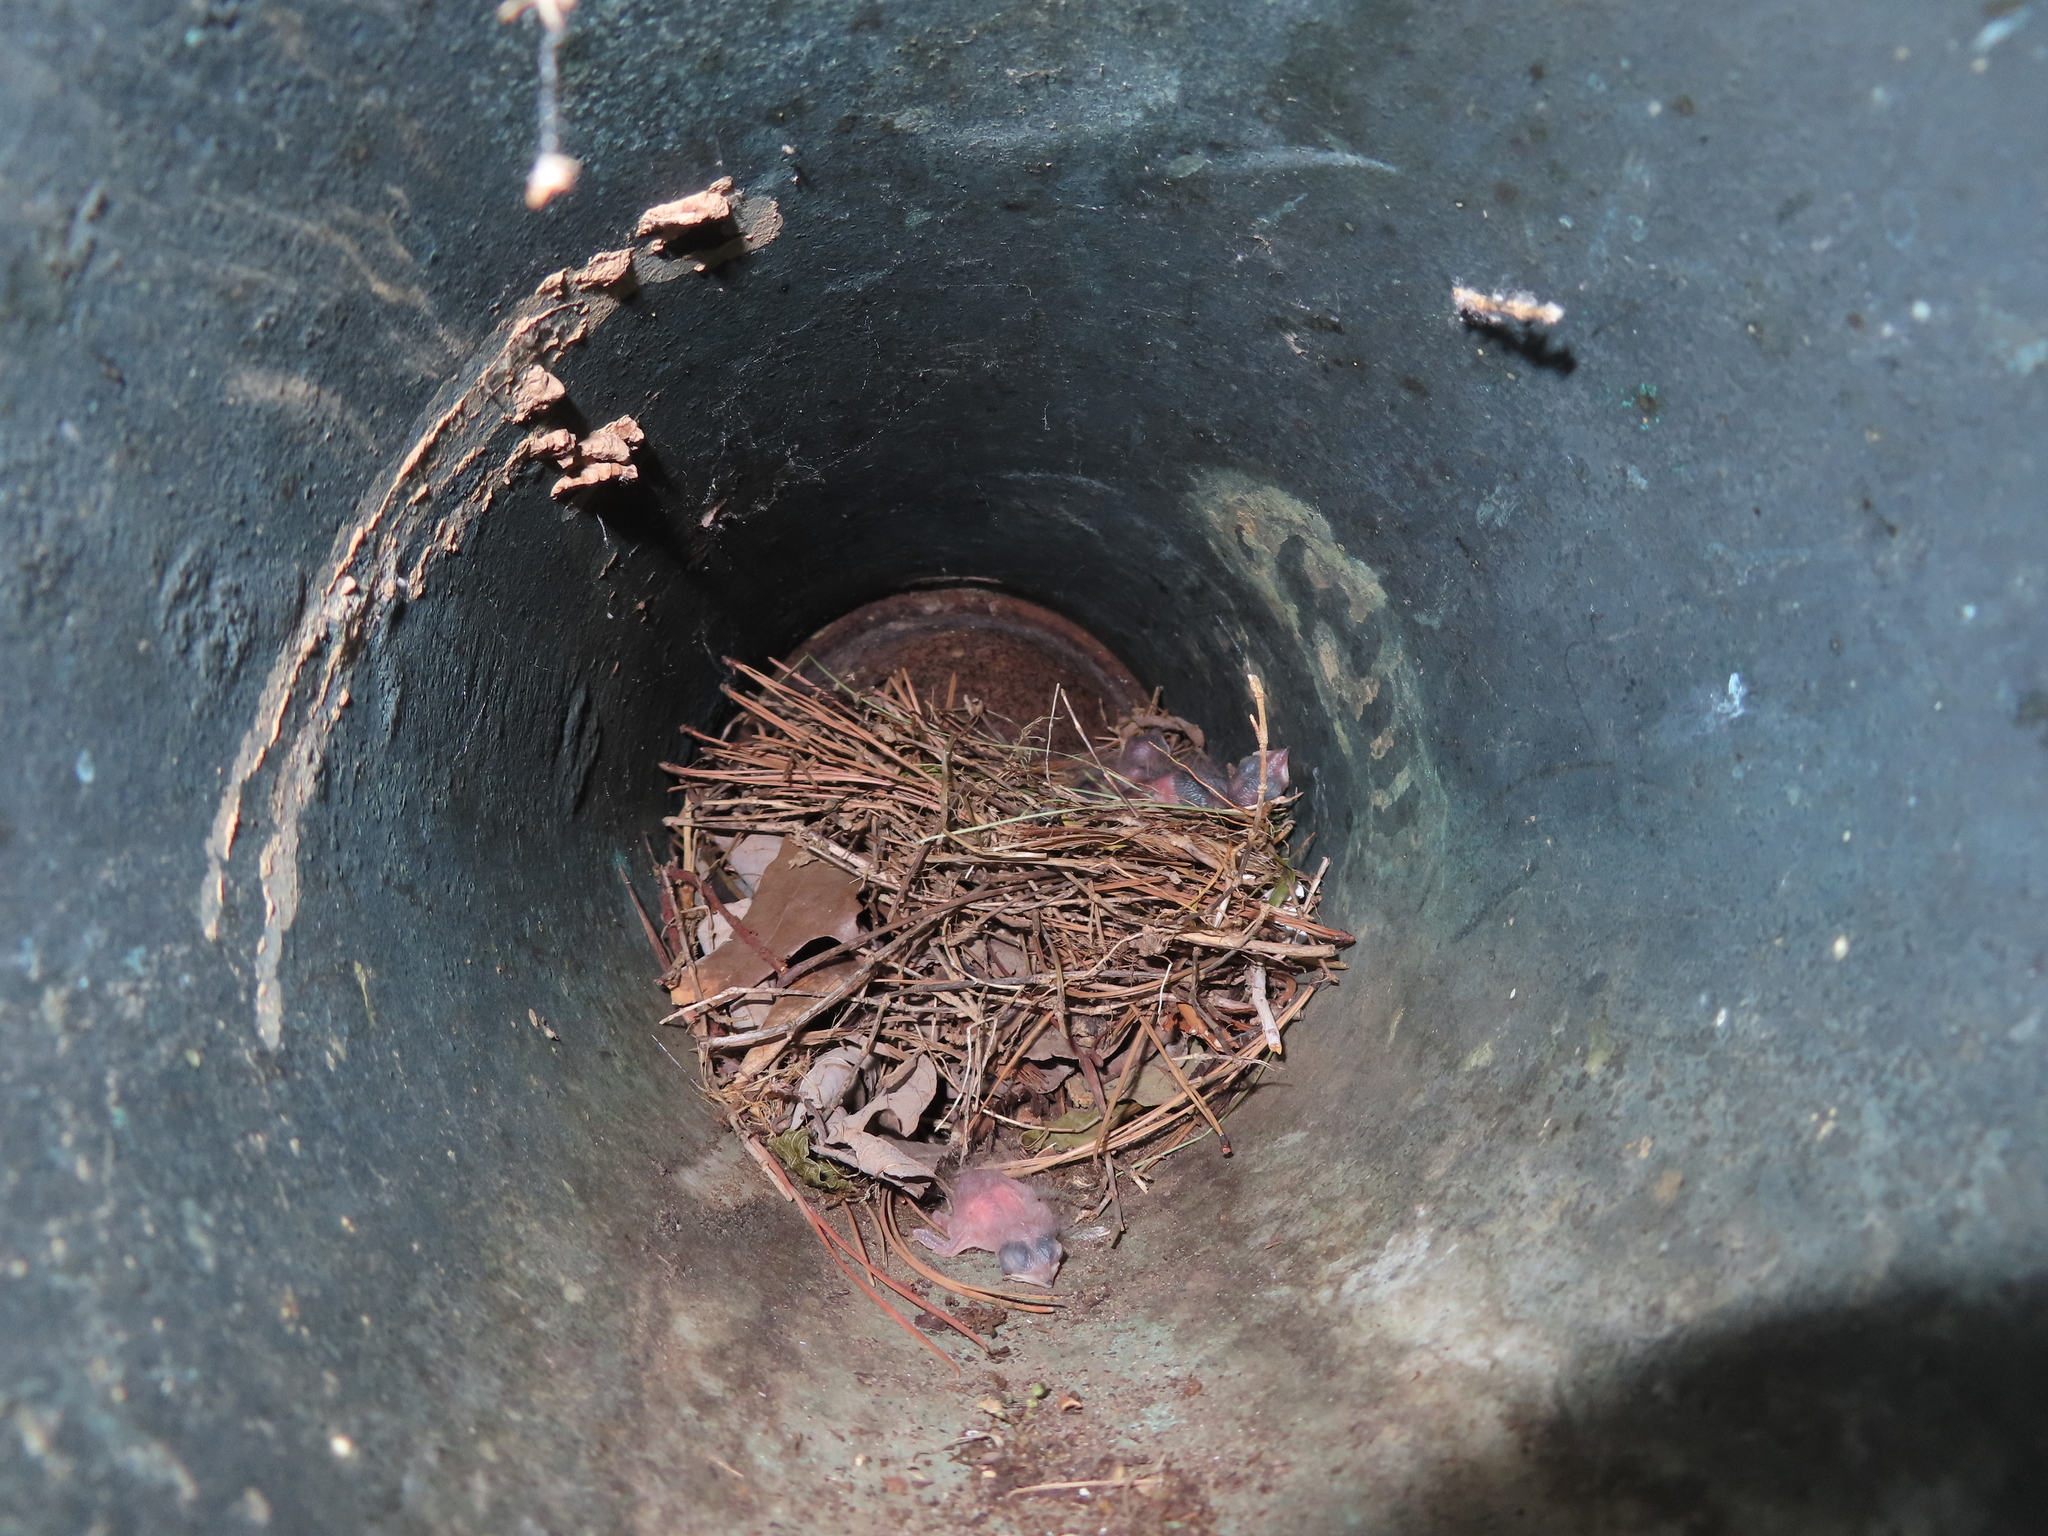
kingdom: Animalia
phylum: Chordata
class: Aves
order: Passeriformes
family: Troglodytidae
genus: Thryothorus
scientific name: Thryothorus ludovicianus
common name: Carolina wren
